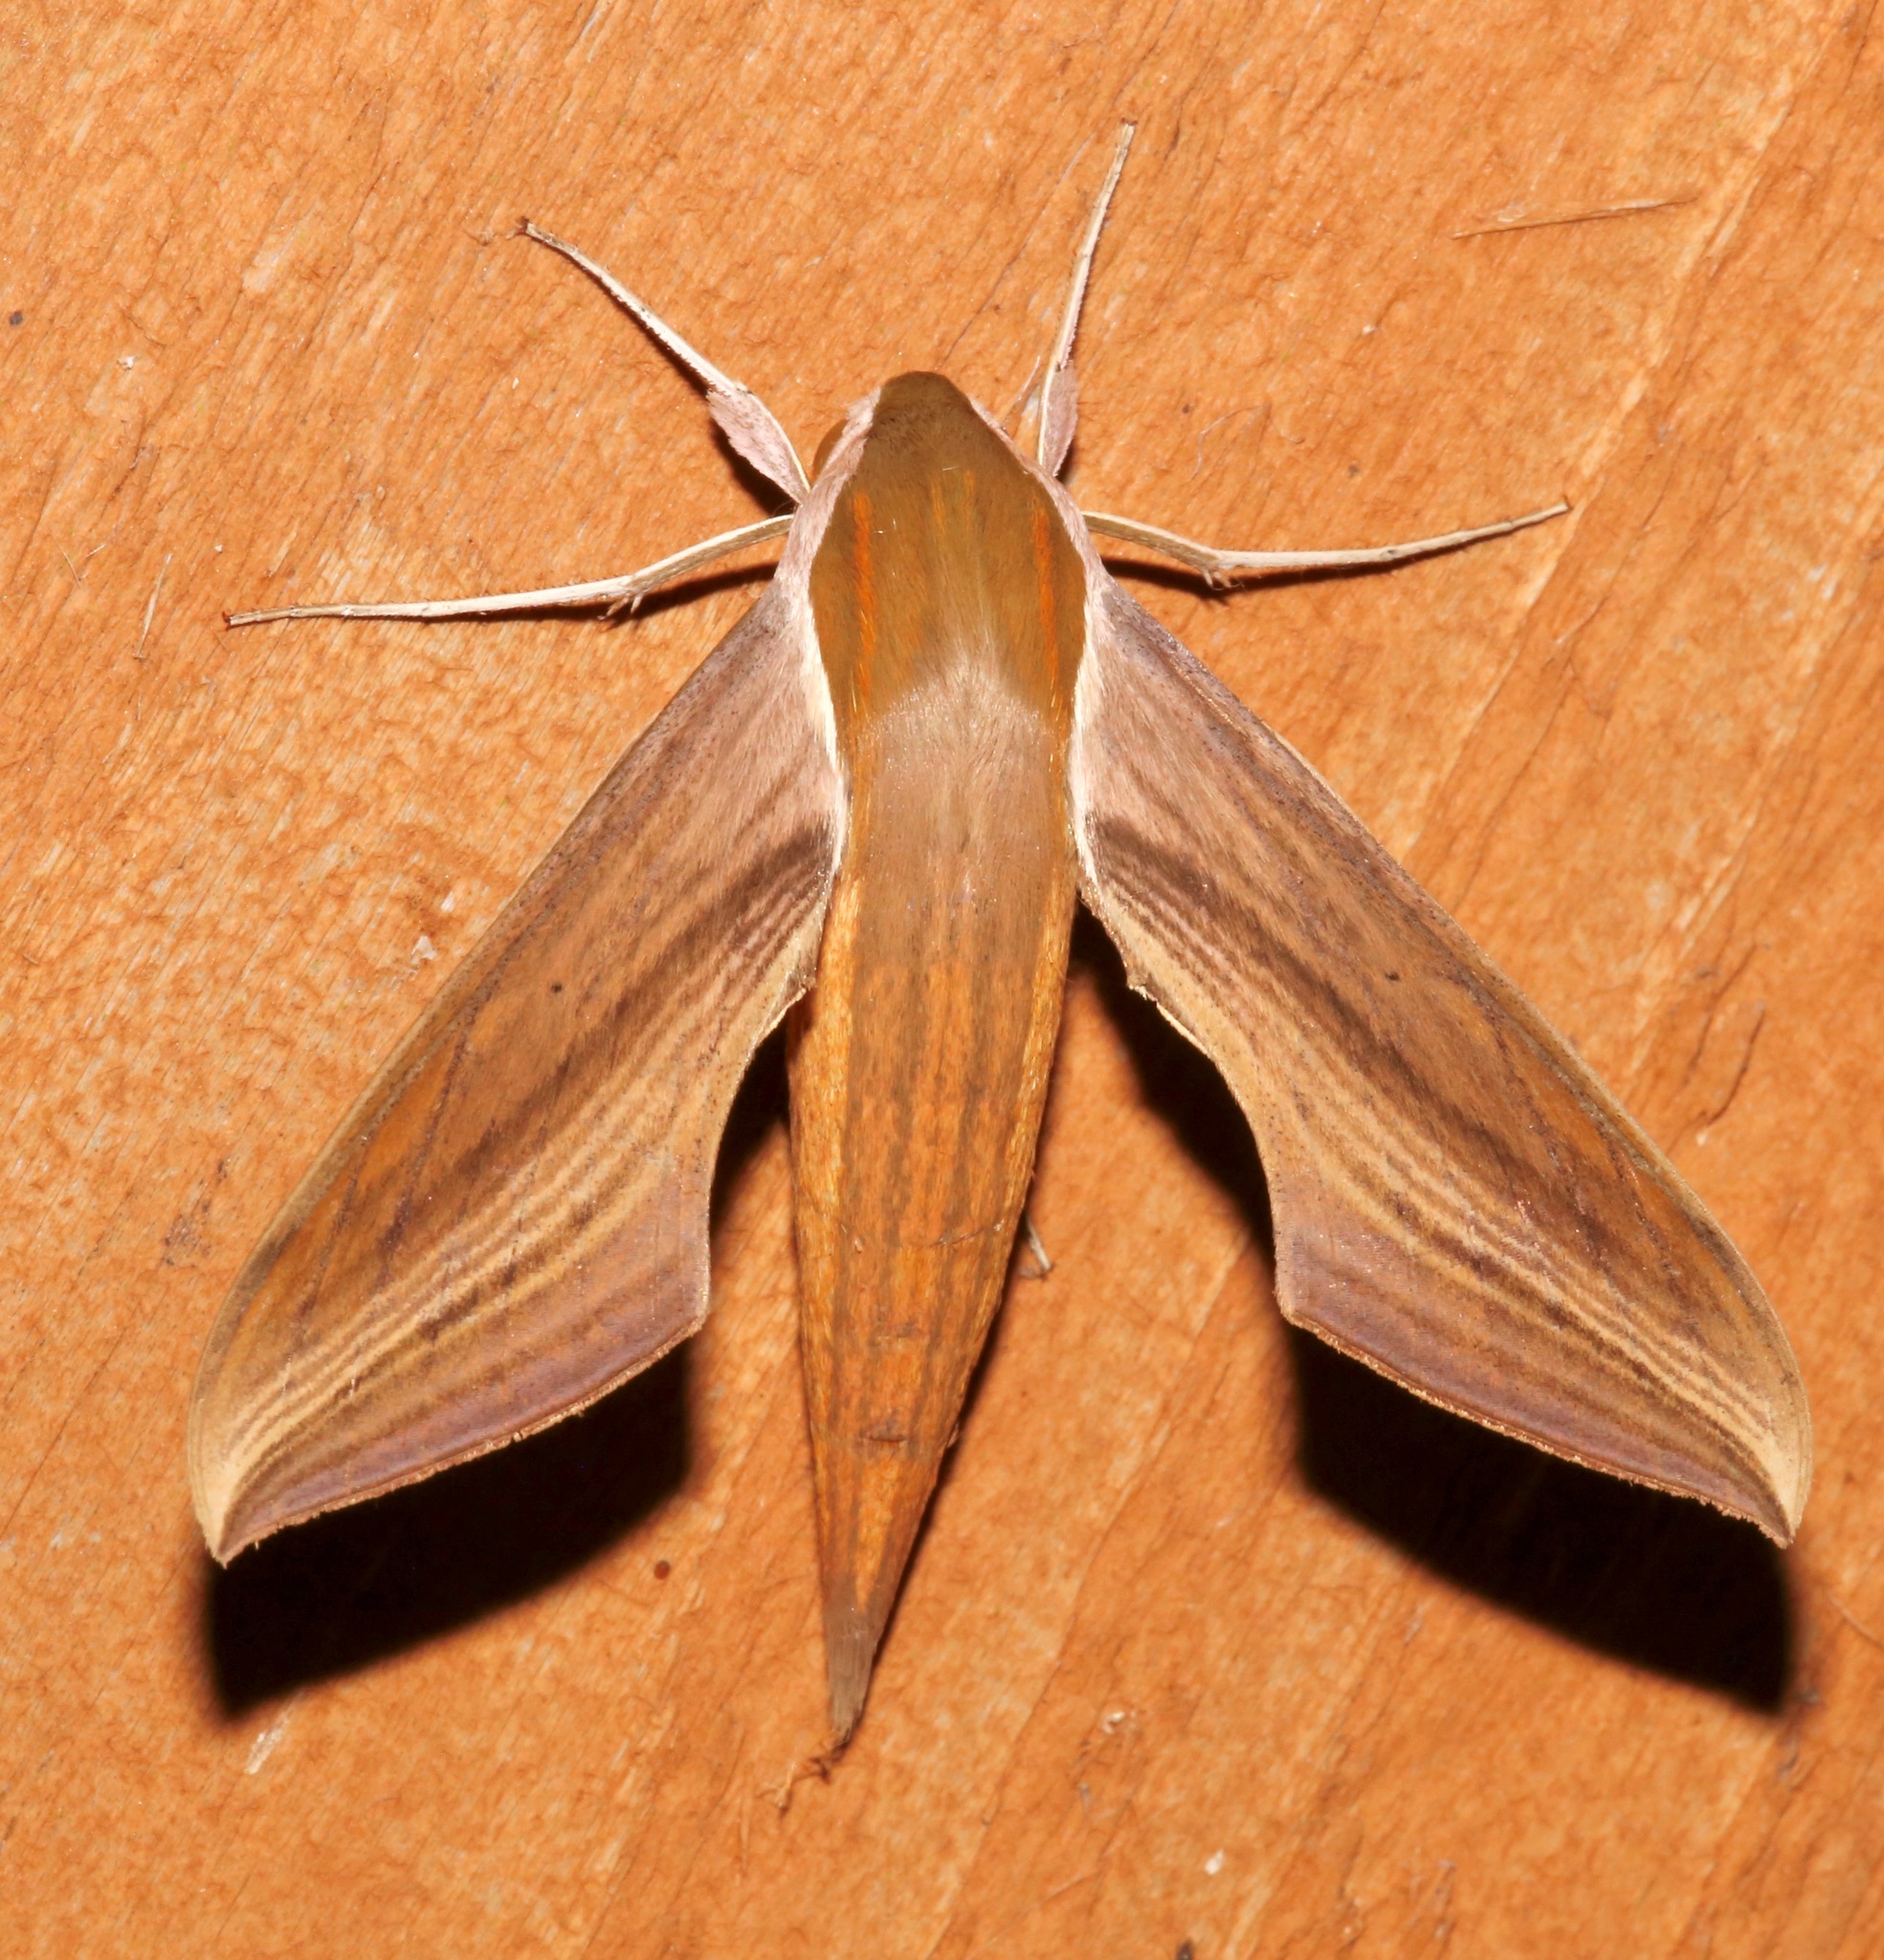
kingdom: Animalia
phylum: Arthropoda
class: Insecta
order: Lepidoptera
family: Sphingidae
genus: Xylophanes
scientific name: Xylophanes tersa
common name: Tersa sphinx
